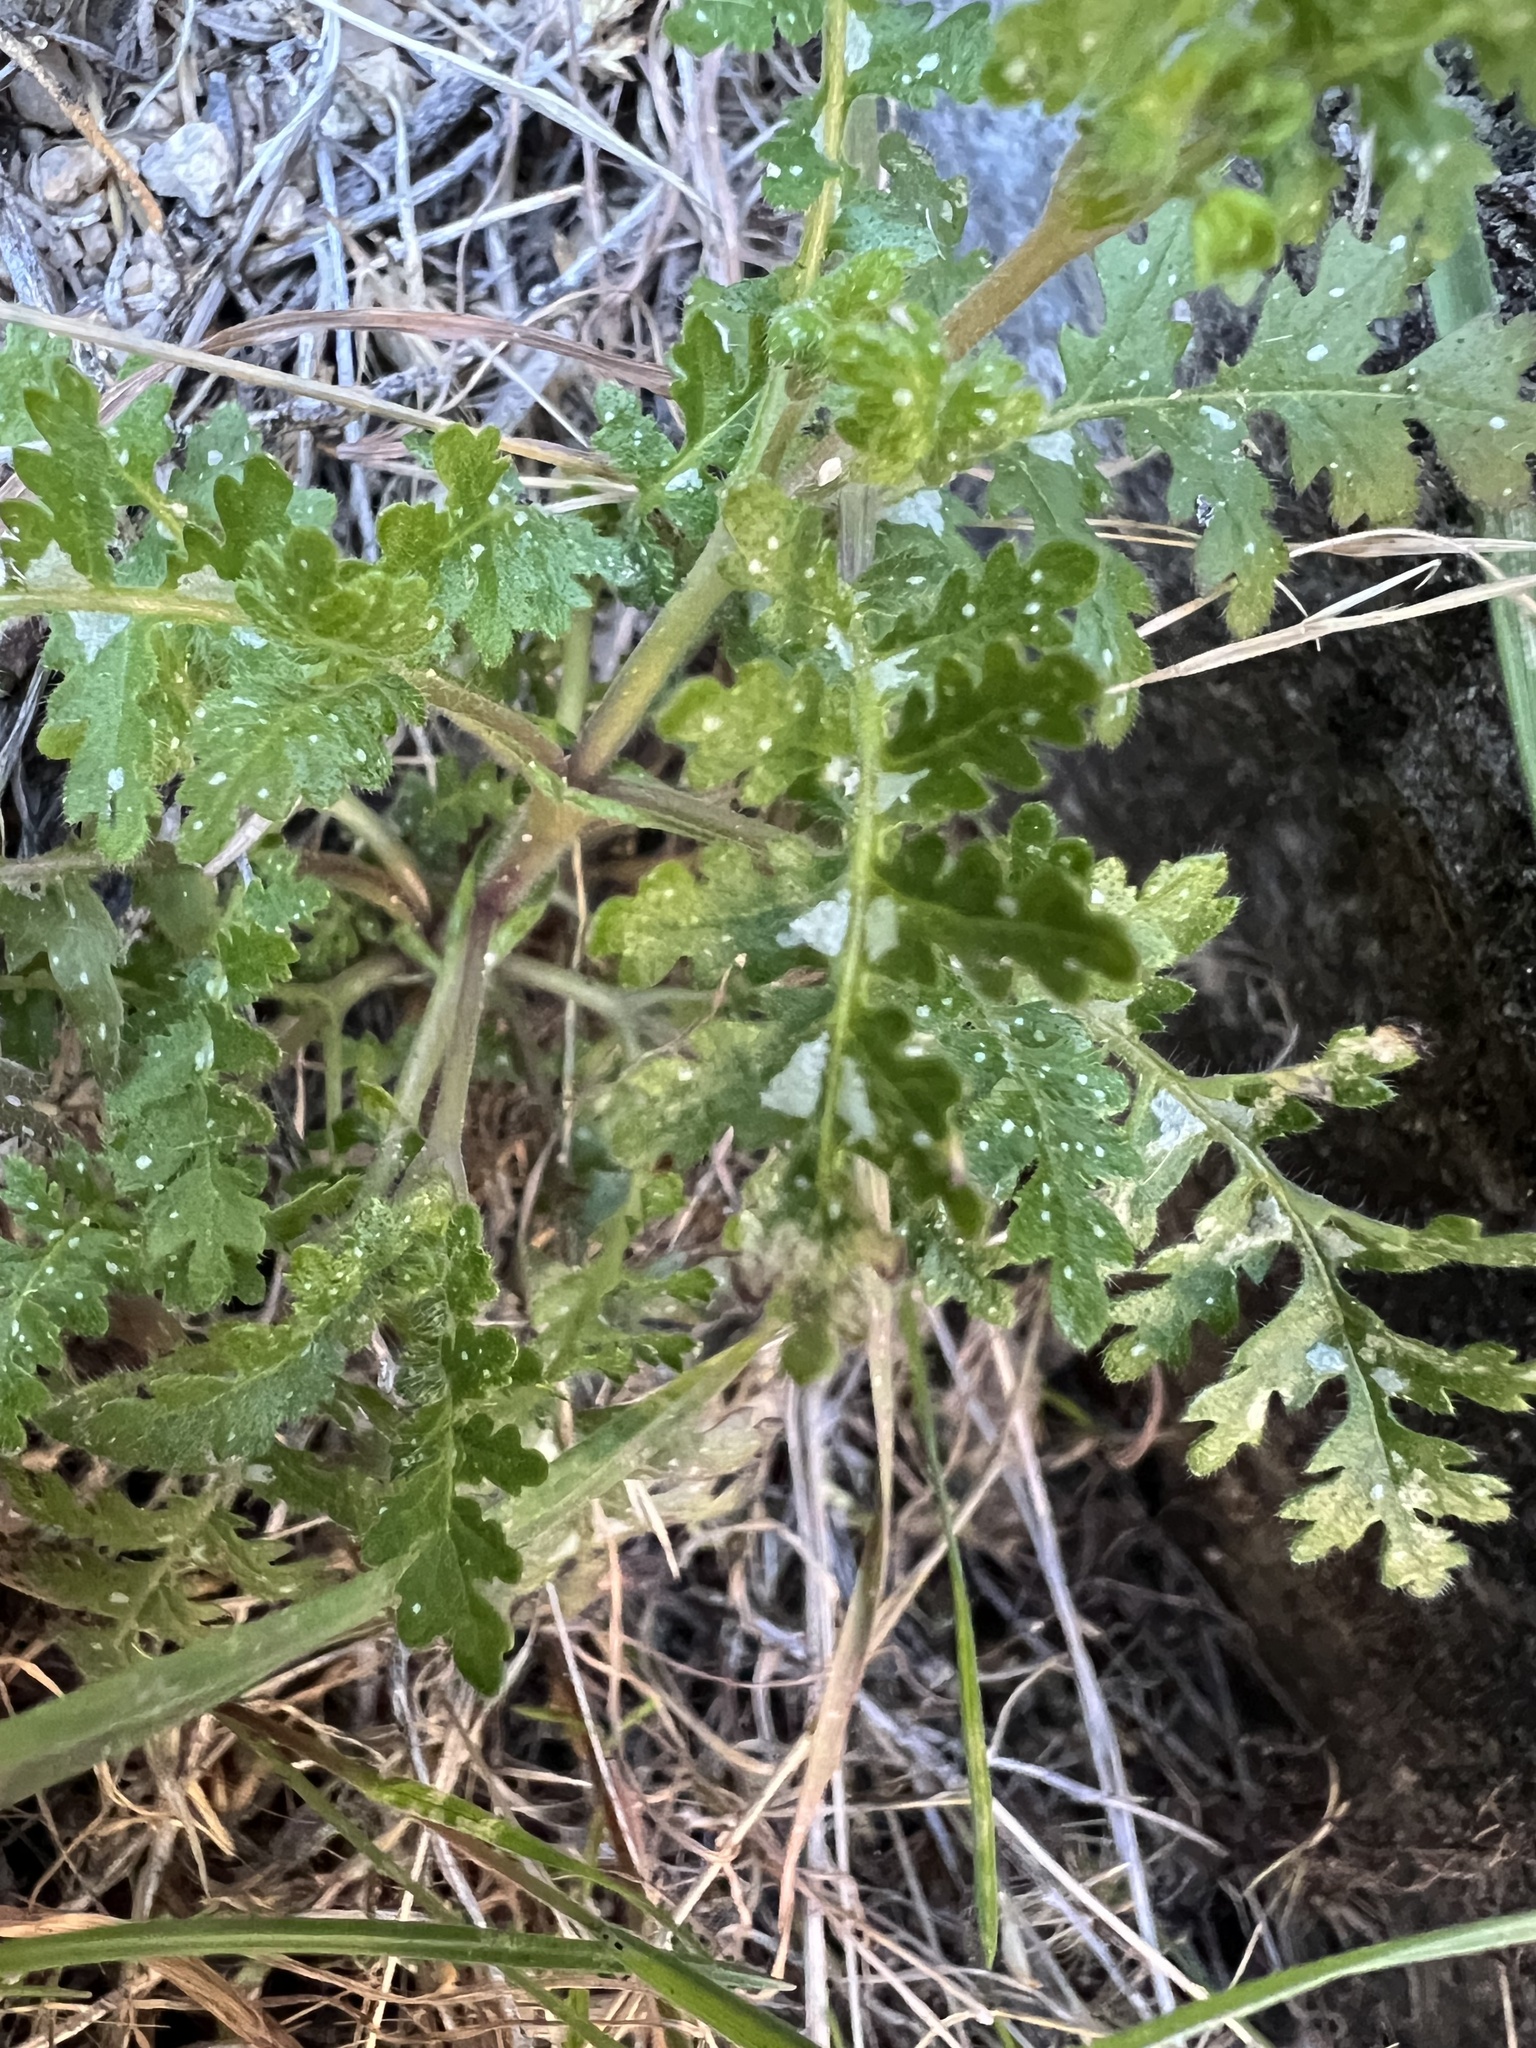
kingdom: Plantae
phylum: Tracheophyta
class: Magnoliopsida
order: Boraginales
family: Hydrophyllaceae
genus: Eucrypta
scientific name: Eucrypta chrysanthemifolia
